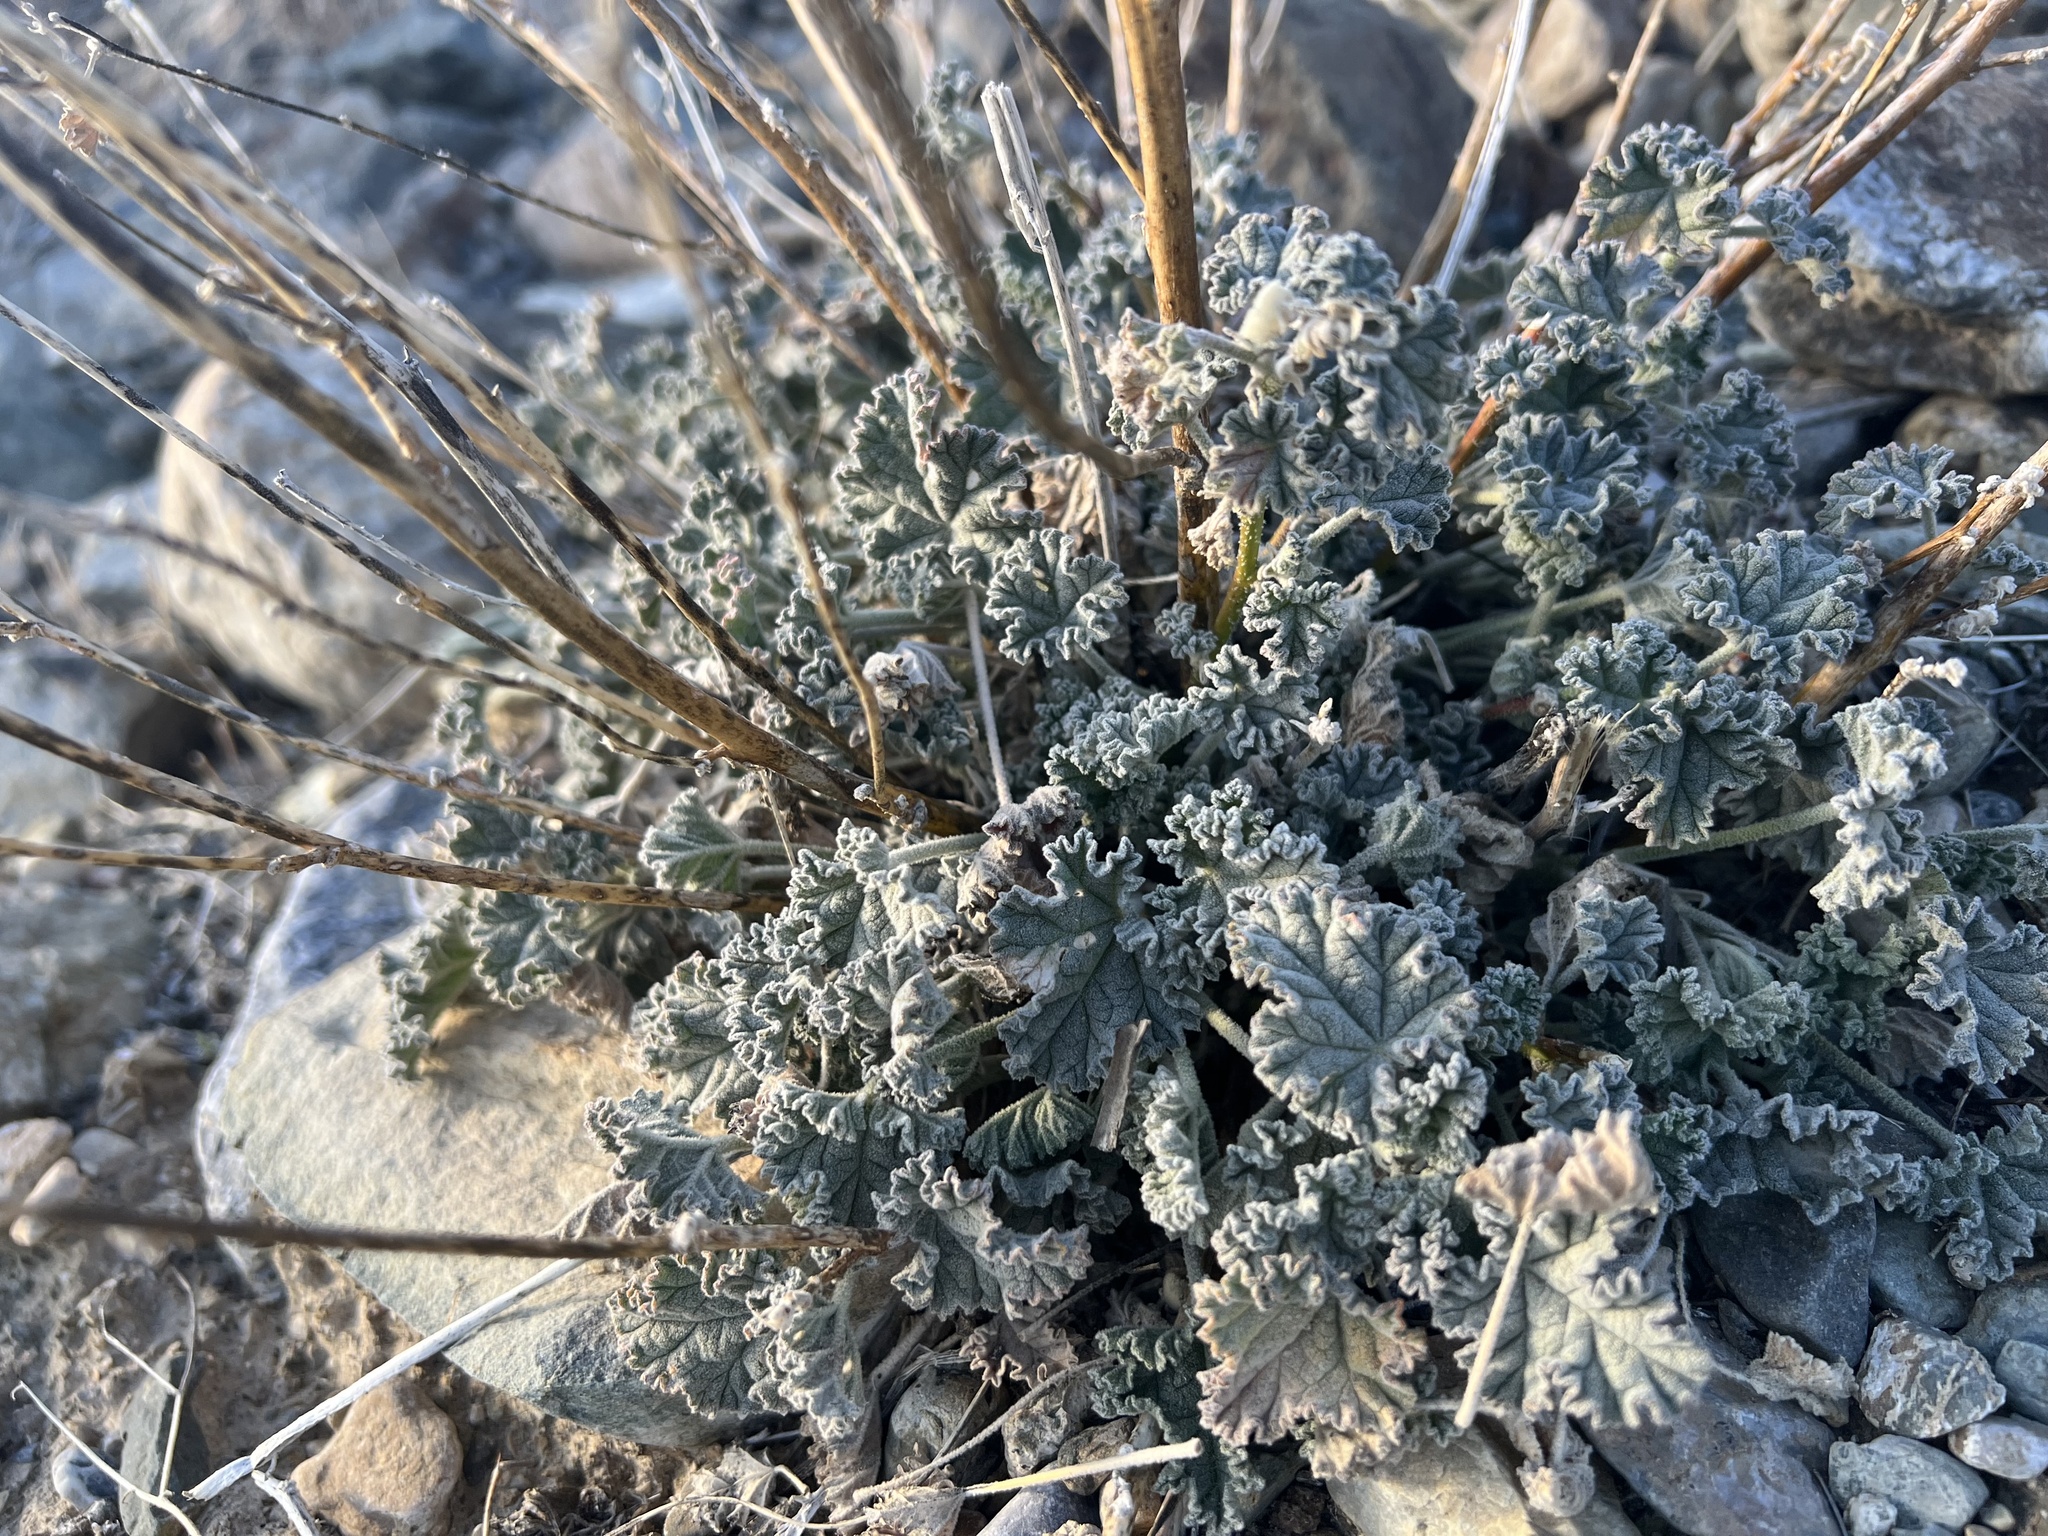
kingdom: Plantae
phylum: Tracheophyta
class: Magnoliopsida
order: Malvales
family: Malvaceae
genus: Sphaeralcea
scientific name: Sphaeralcea ambigua
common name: Apricot globe-mallow
